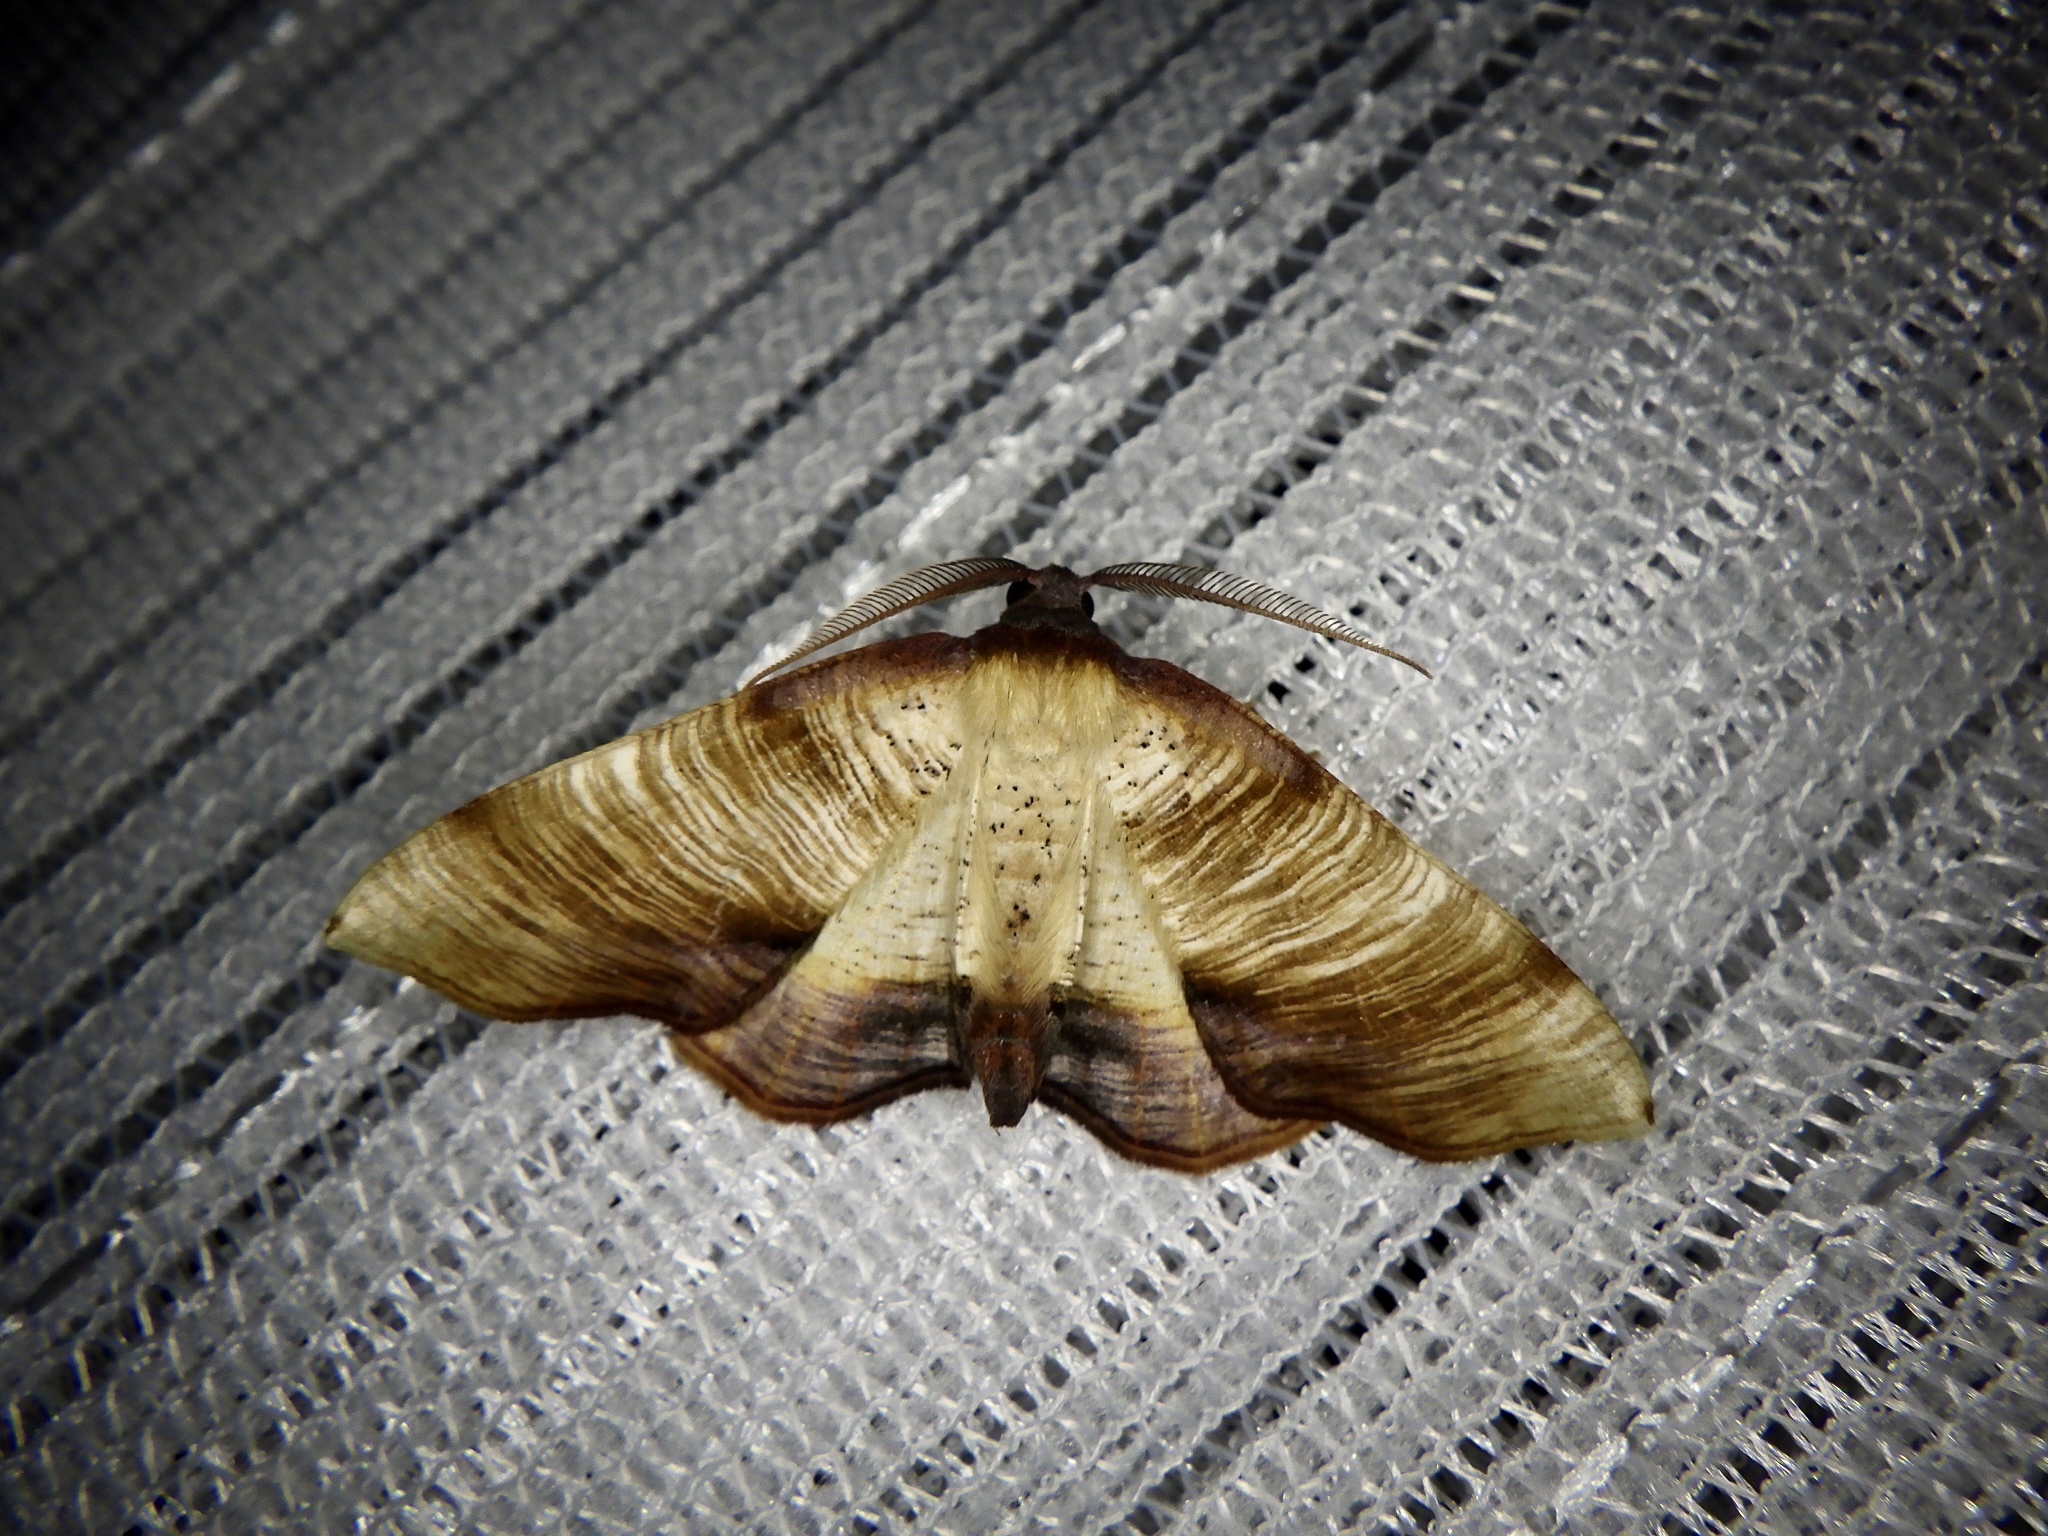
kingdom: Animalia
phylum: Arthropoda
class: Insecta
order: Lepidoptera
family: Geometridae
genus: Plagodis
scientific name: Plagodis dolabraria
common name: Scorched wing
